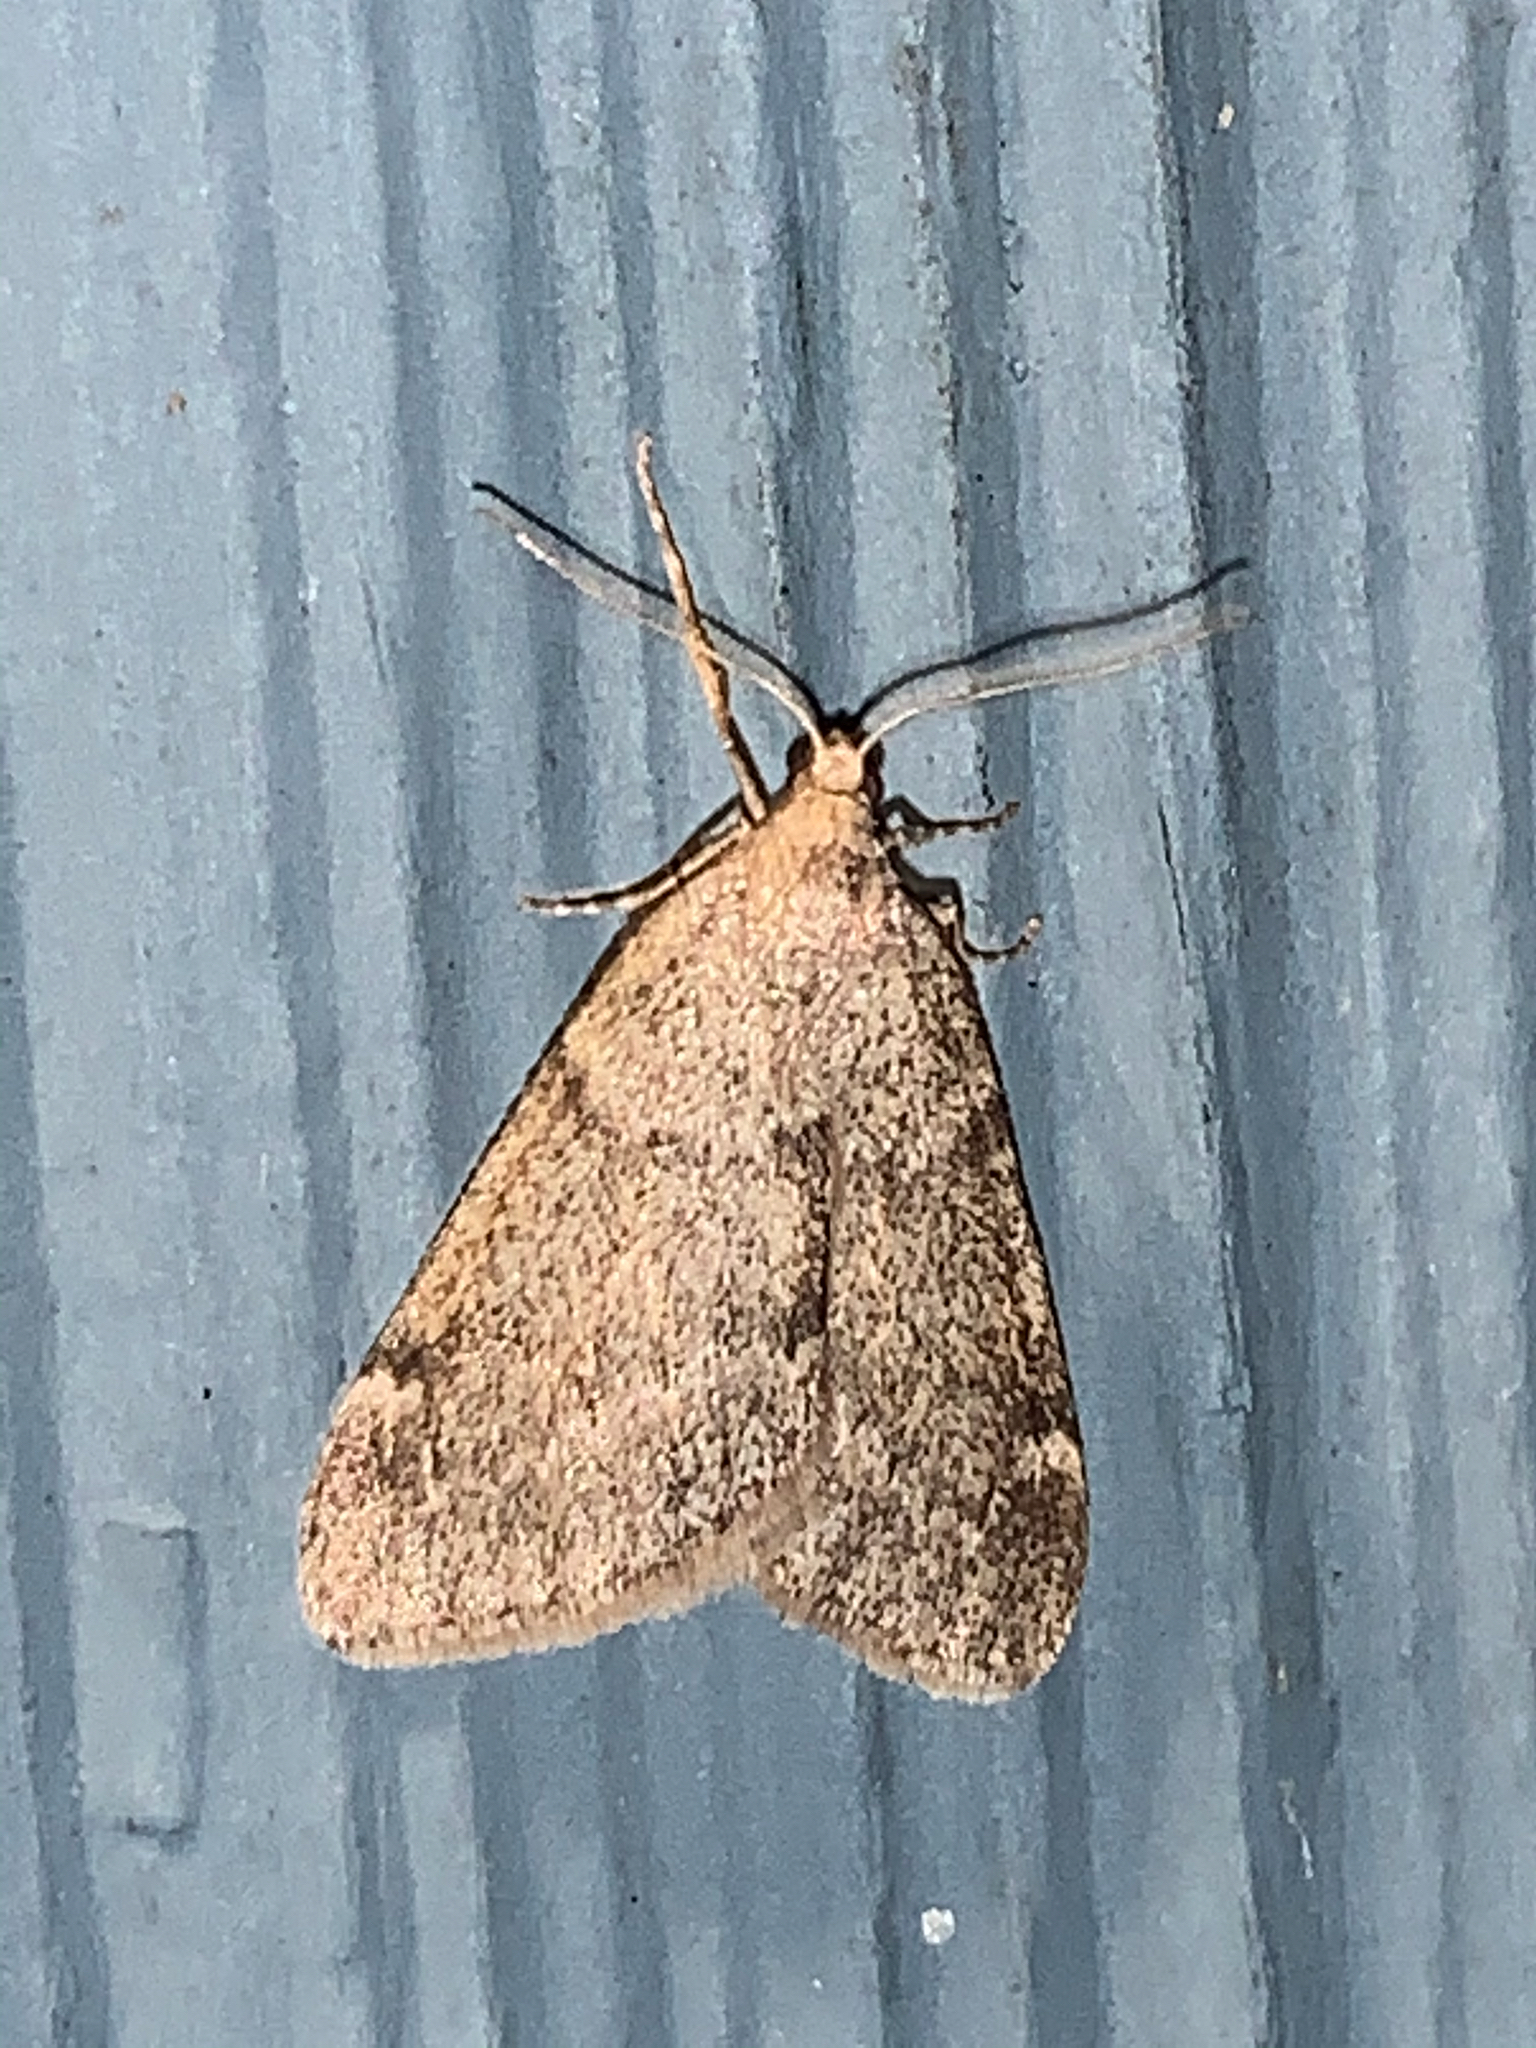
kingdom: Animalia
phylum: Arthropoda
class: Insecta
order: Lepidoptera
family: Geometridae
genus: Alsophila
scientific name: Alsophila pometaria
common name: Fall cankerworm
